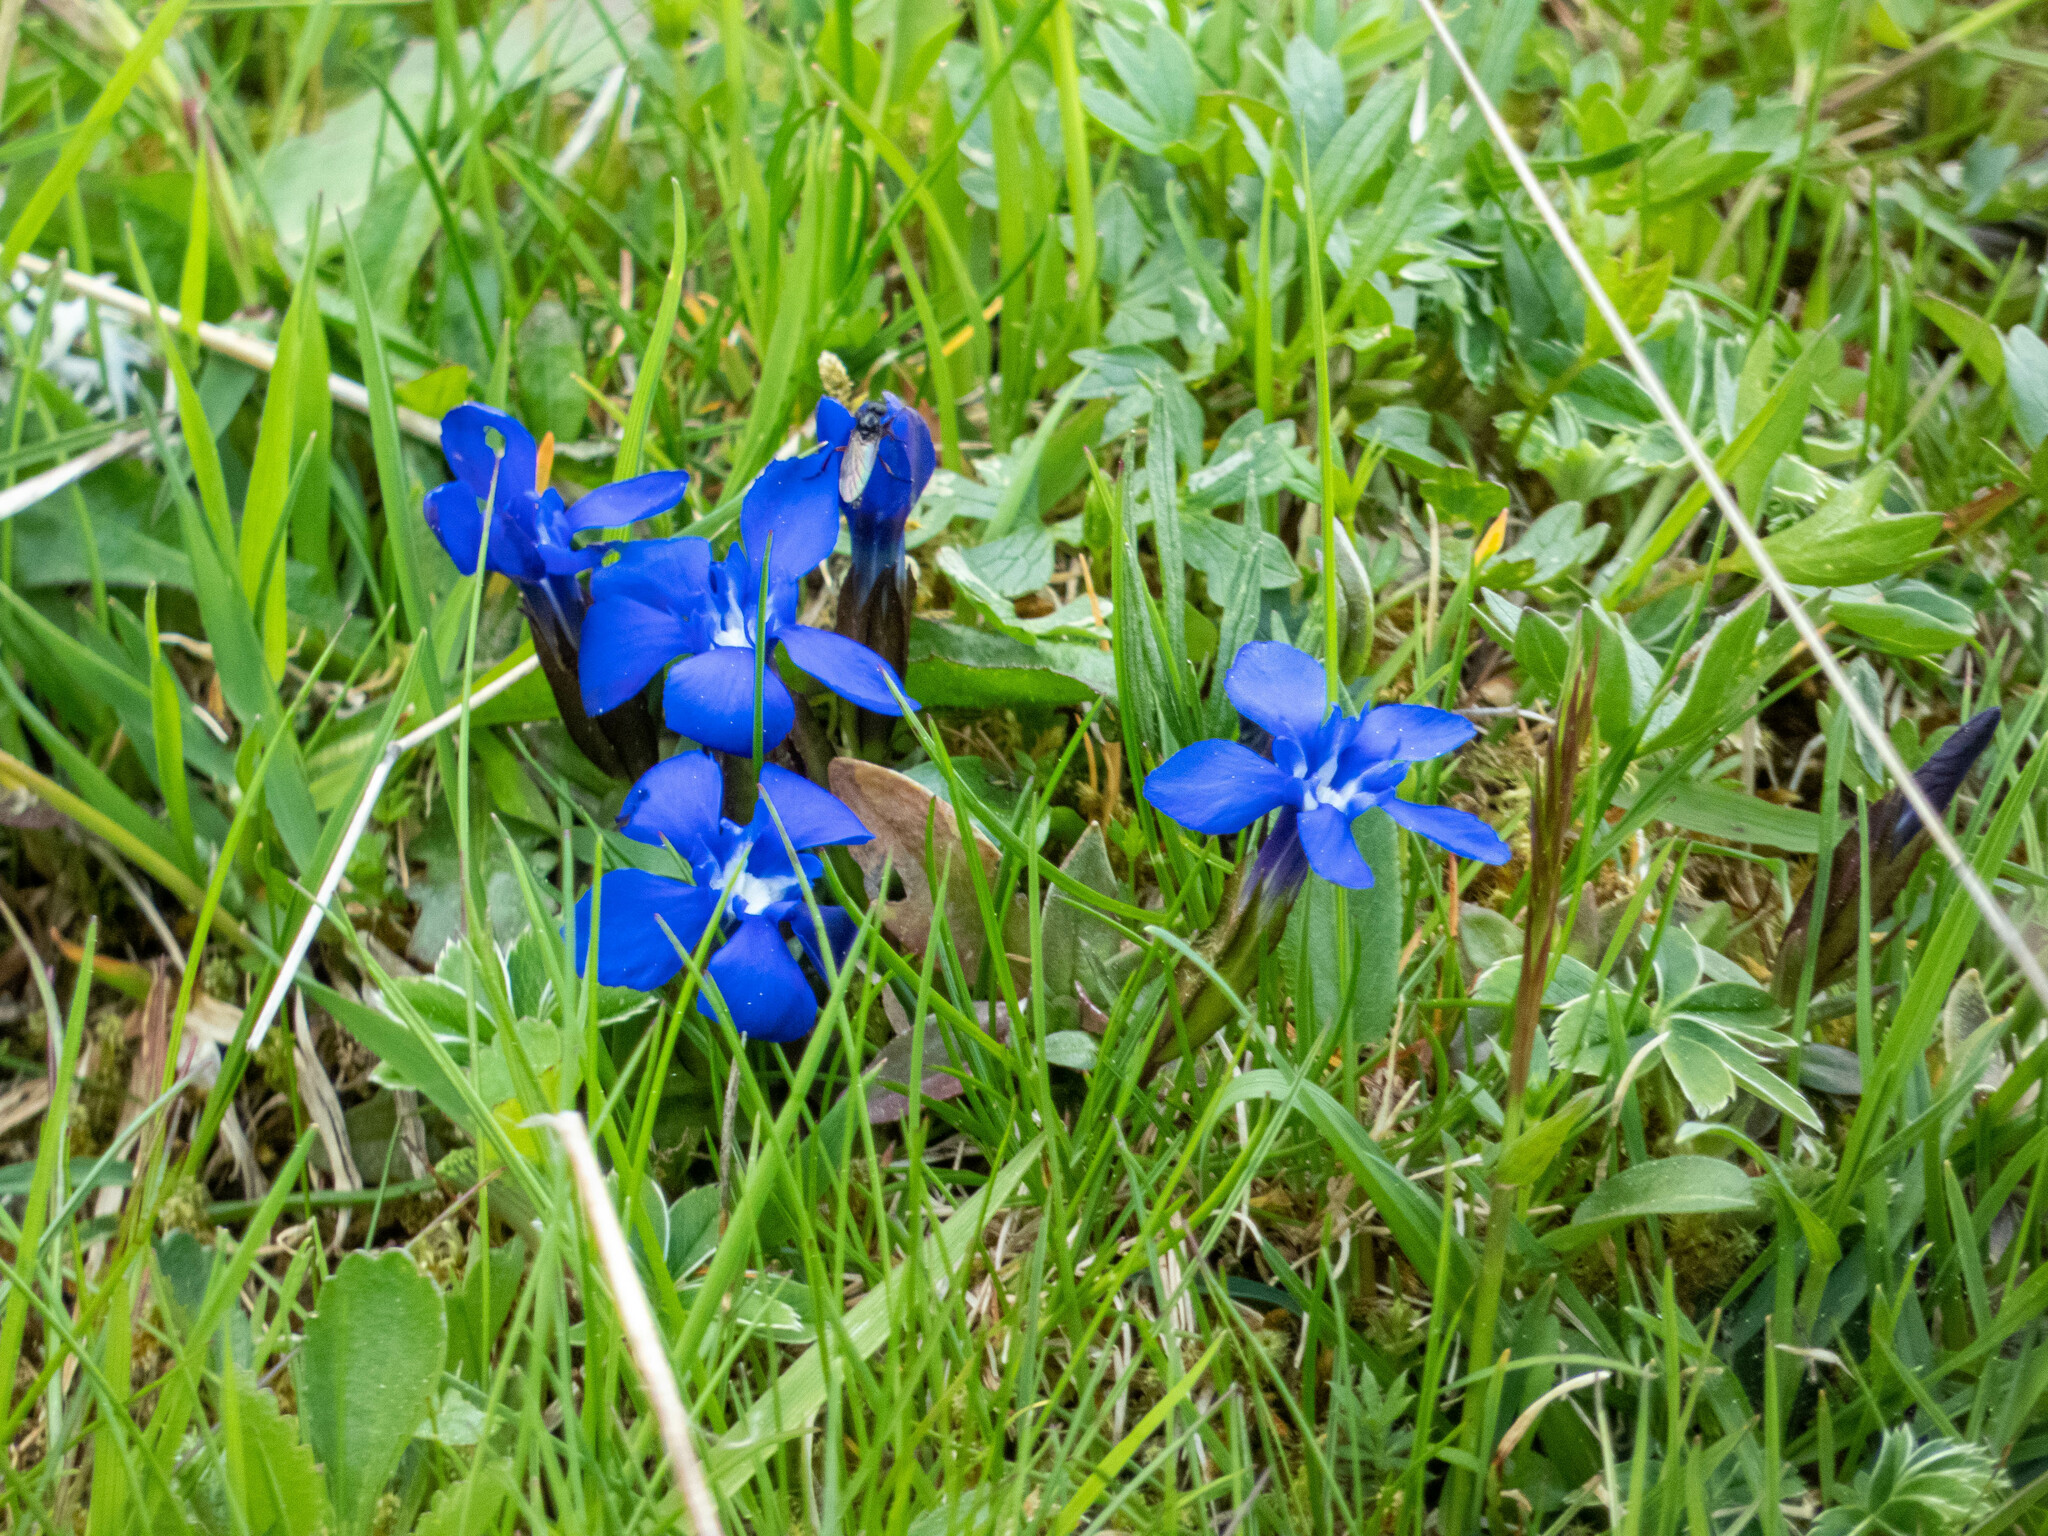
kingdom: Plantae
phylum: Tracheophyta
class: Magnoliopsida
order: Gentianales
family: Gentianaceae
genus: Gentiana
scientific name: Gentiana verna
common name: Spring gentian
